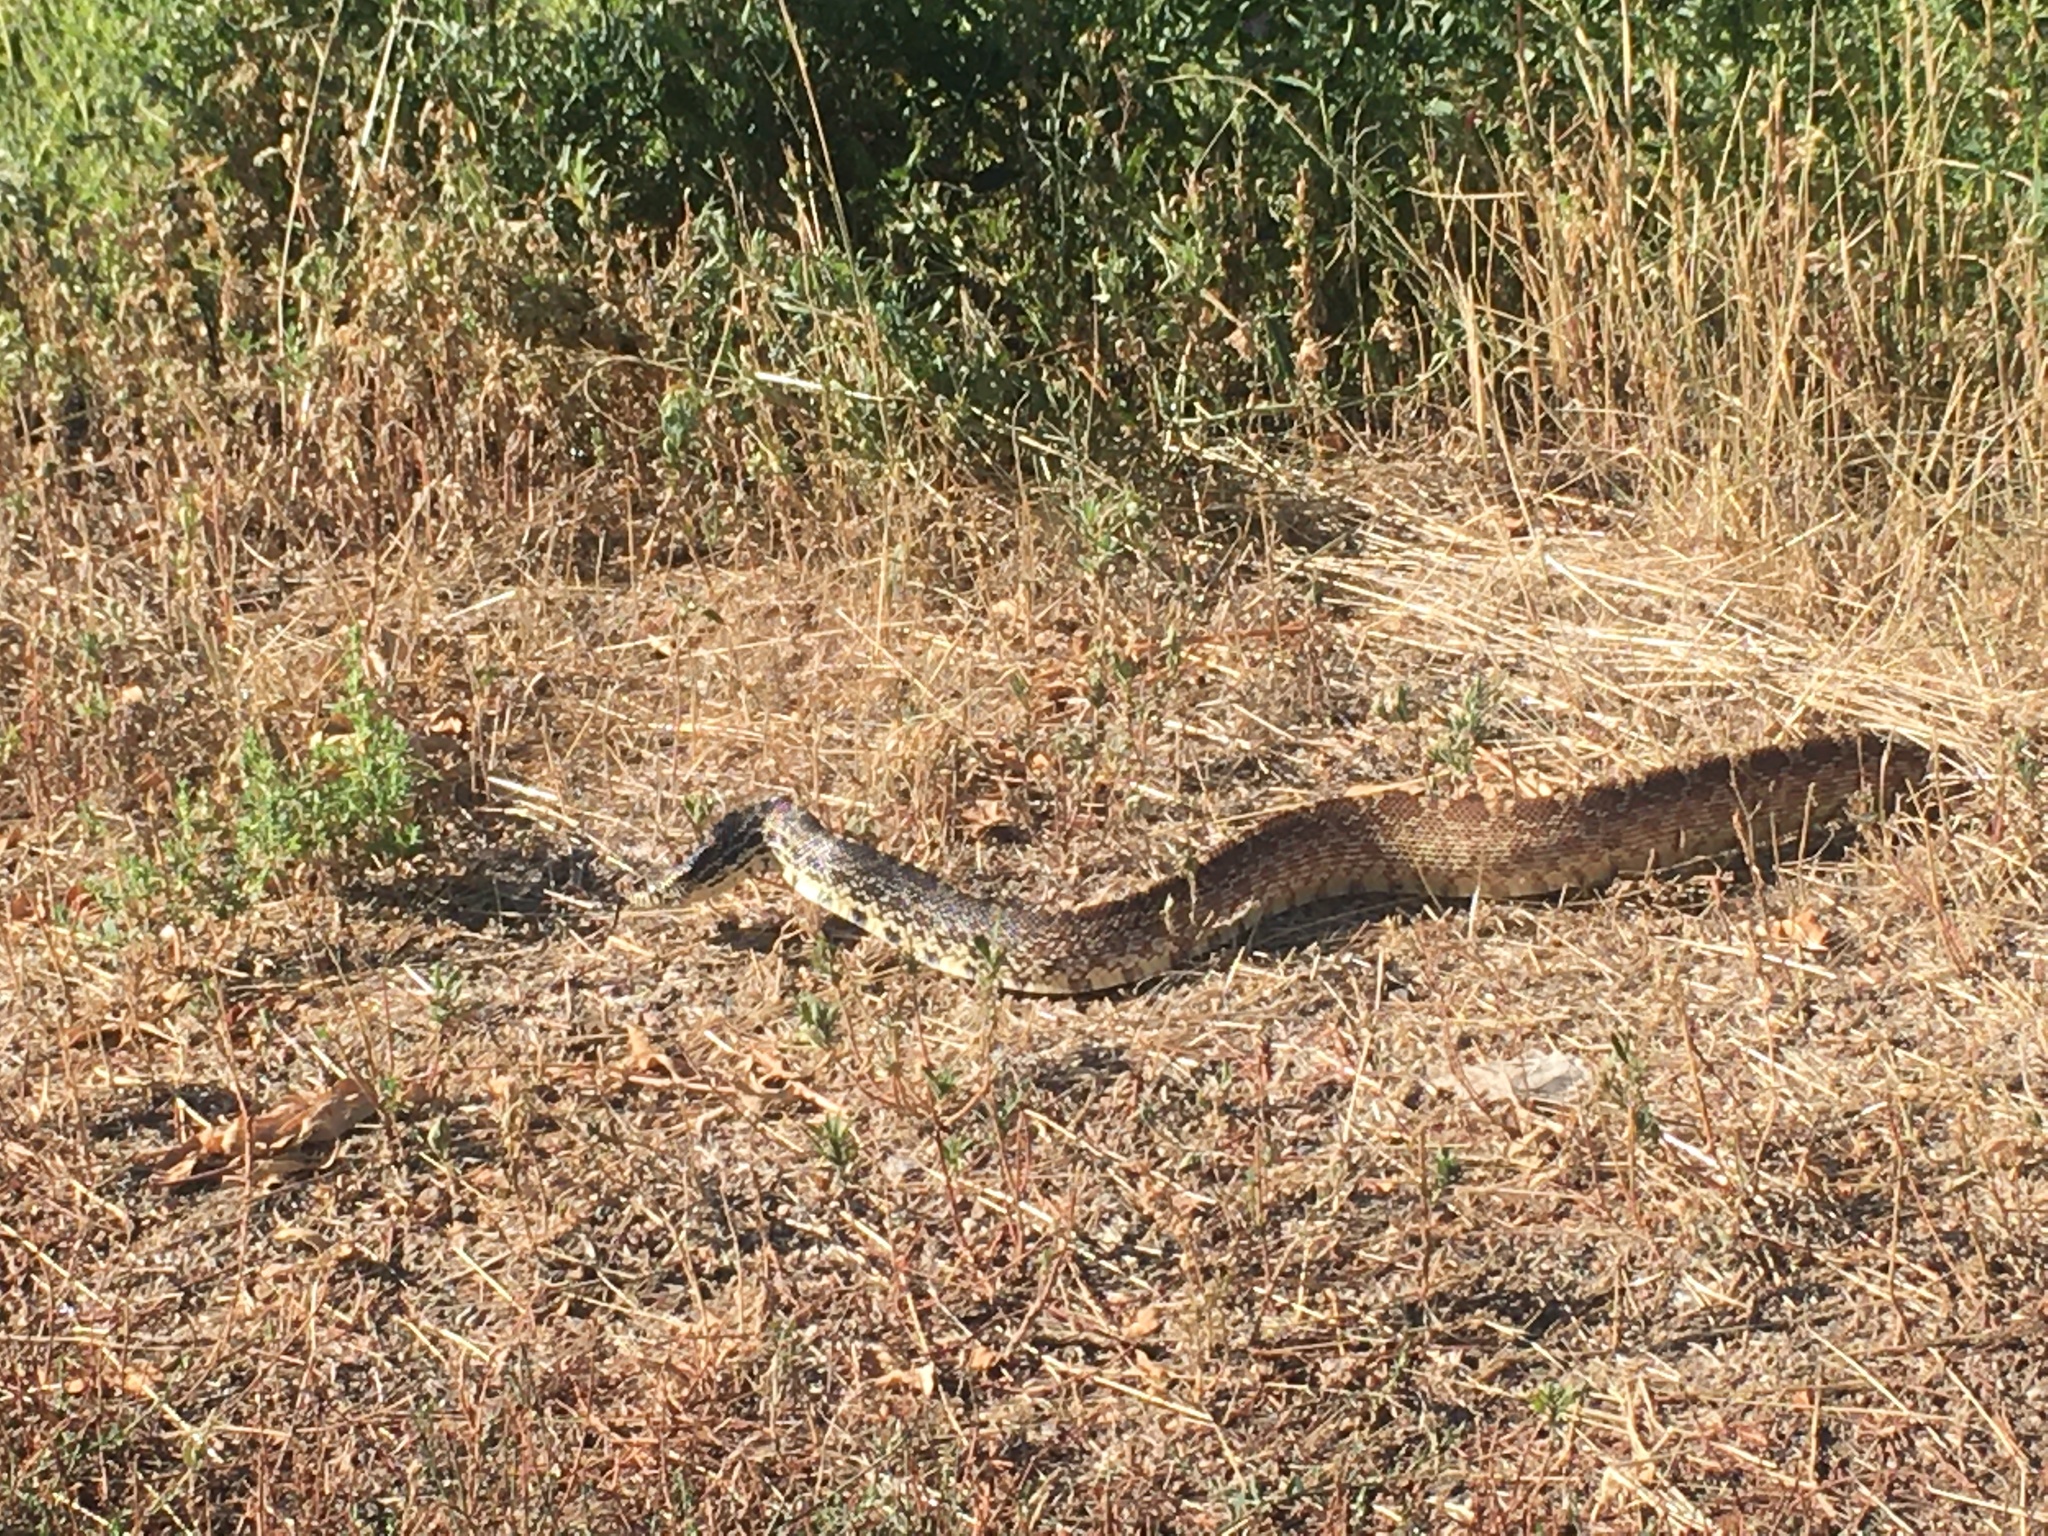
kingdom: Animalia
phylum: Chordata
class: Squamata
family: Colubridae
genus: Pituophis
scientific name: Pituophis catenifer
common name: Gopher snake
